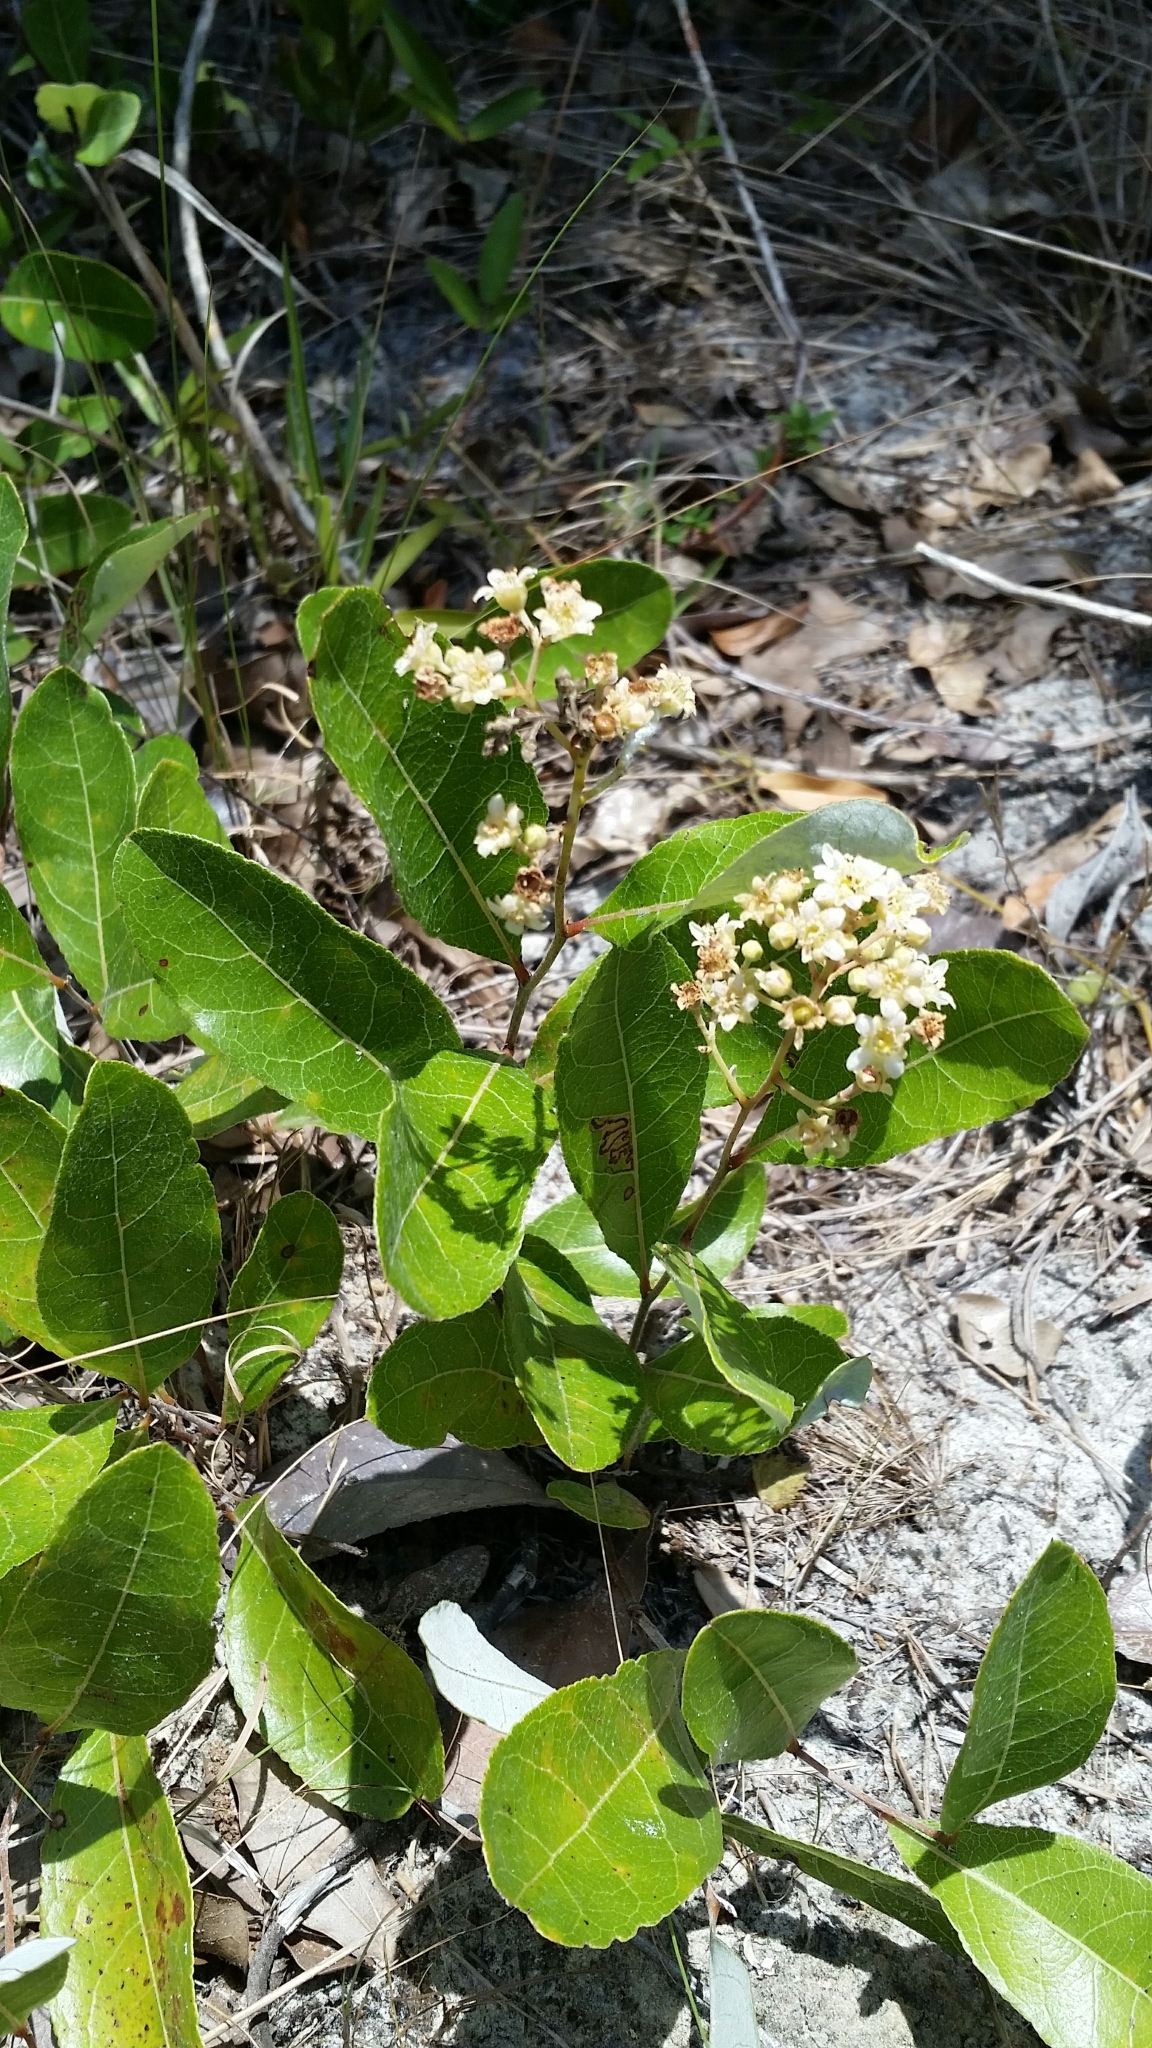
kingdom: Plantae
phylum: Tracheophyta
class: Magnoliopsida
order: Malpighiales
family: Chrysobalanaceae
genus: Geobalanus
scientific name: Geobalanus oblongifolius
